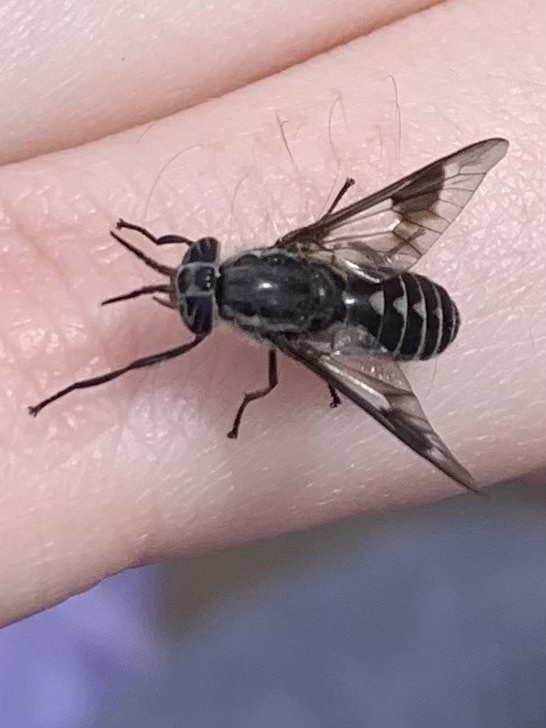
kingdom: Animalia
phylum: Arthropoda
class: Insecta
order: Diptera
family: Tabanidae
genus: Chrysops
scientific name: Chrysops sordidus
